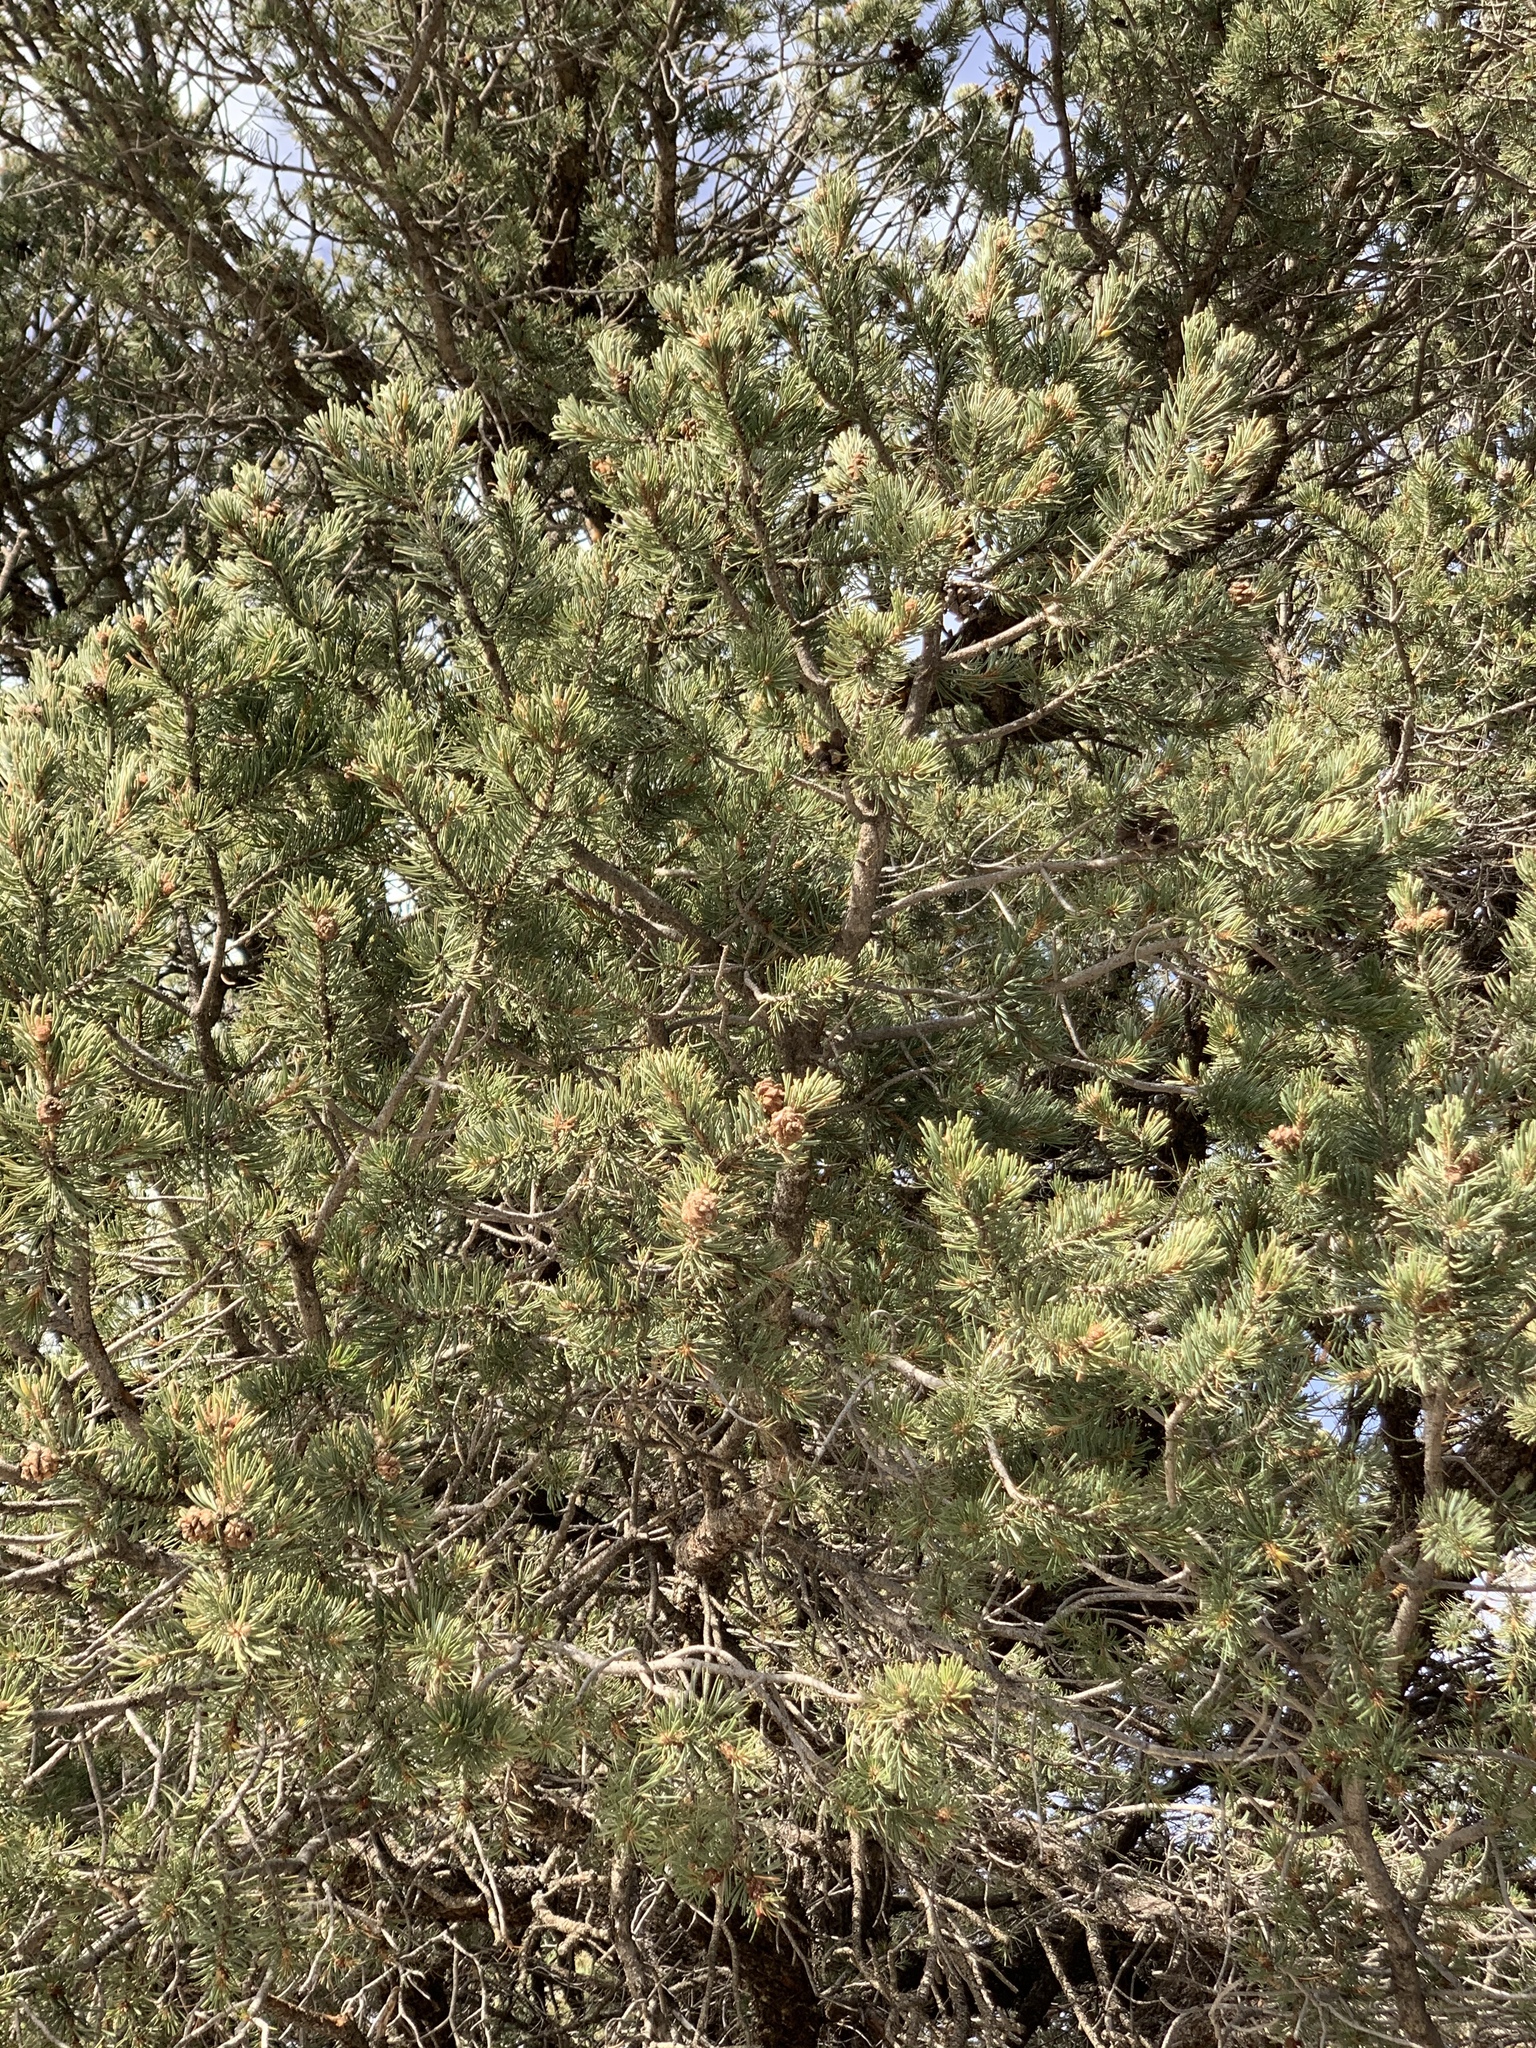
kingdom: Plantae
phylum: Tracheophyta
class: Pinopsida
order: Pinales
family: Pinaceae
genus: Pinus
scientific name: Pinus edulis
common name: Colorado pinyon
